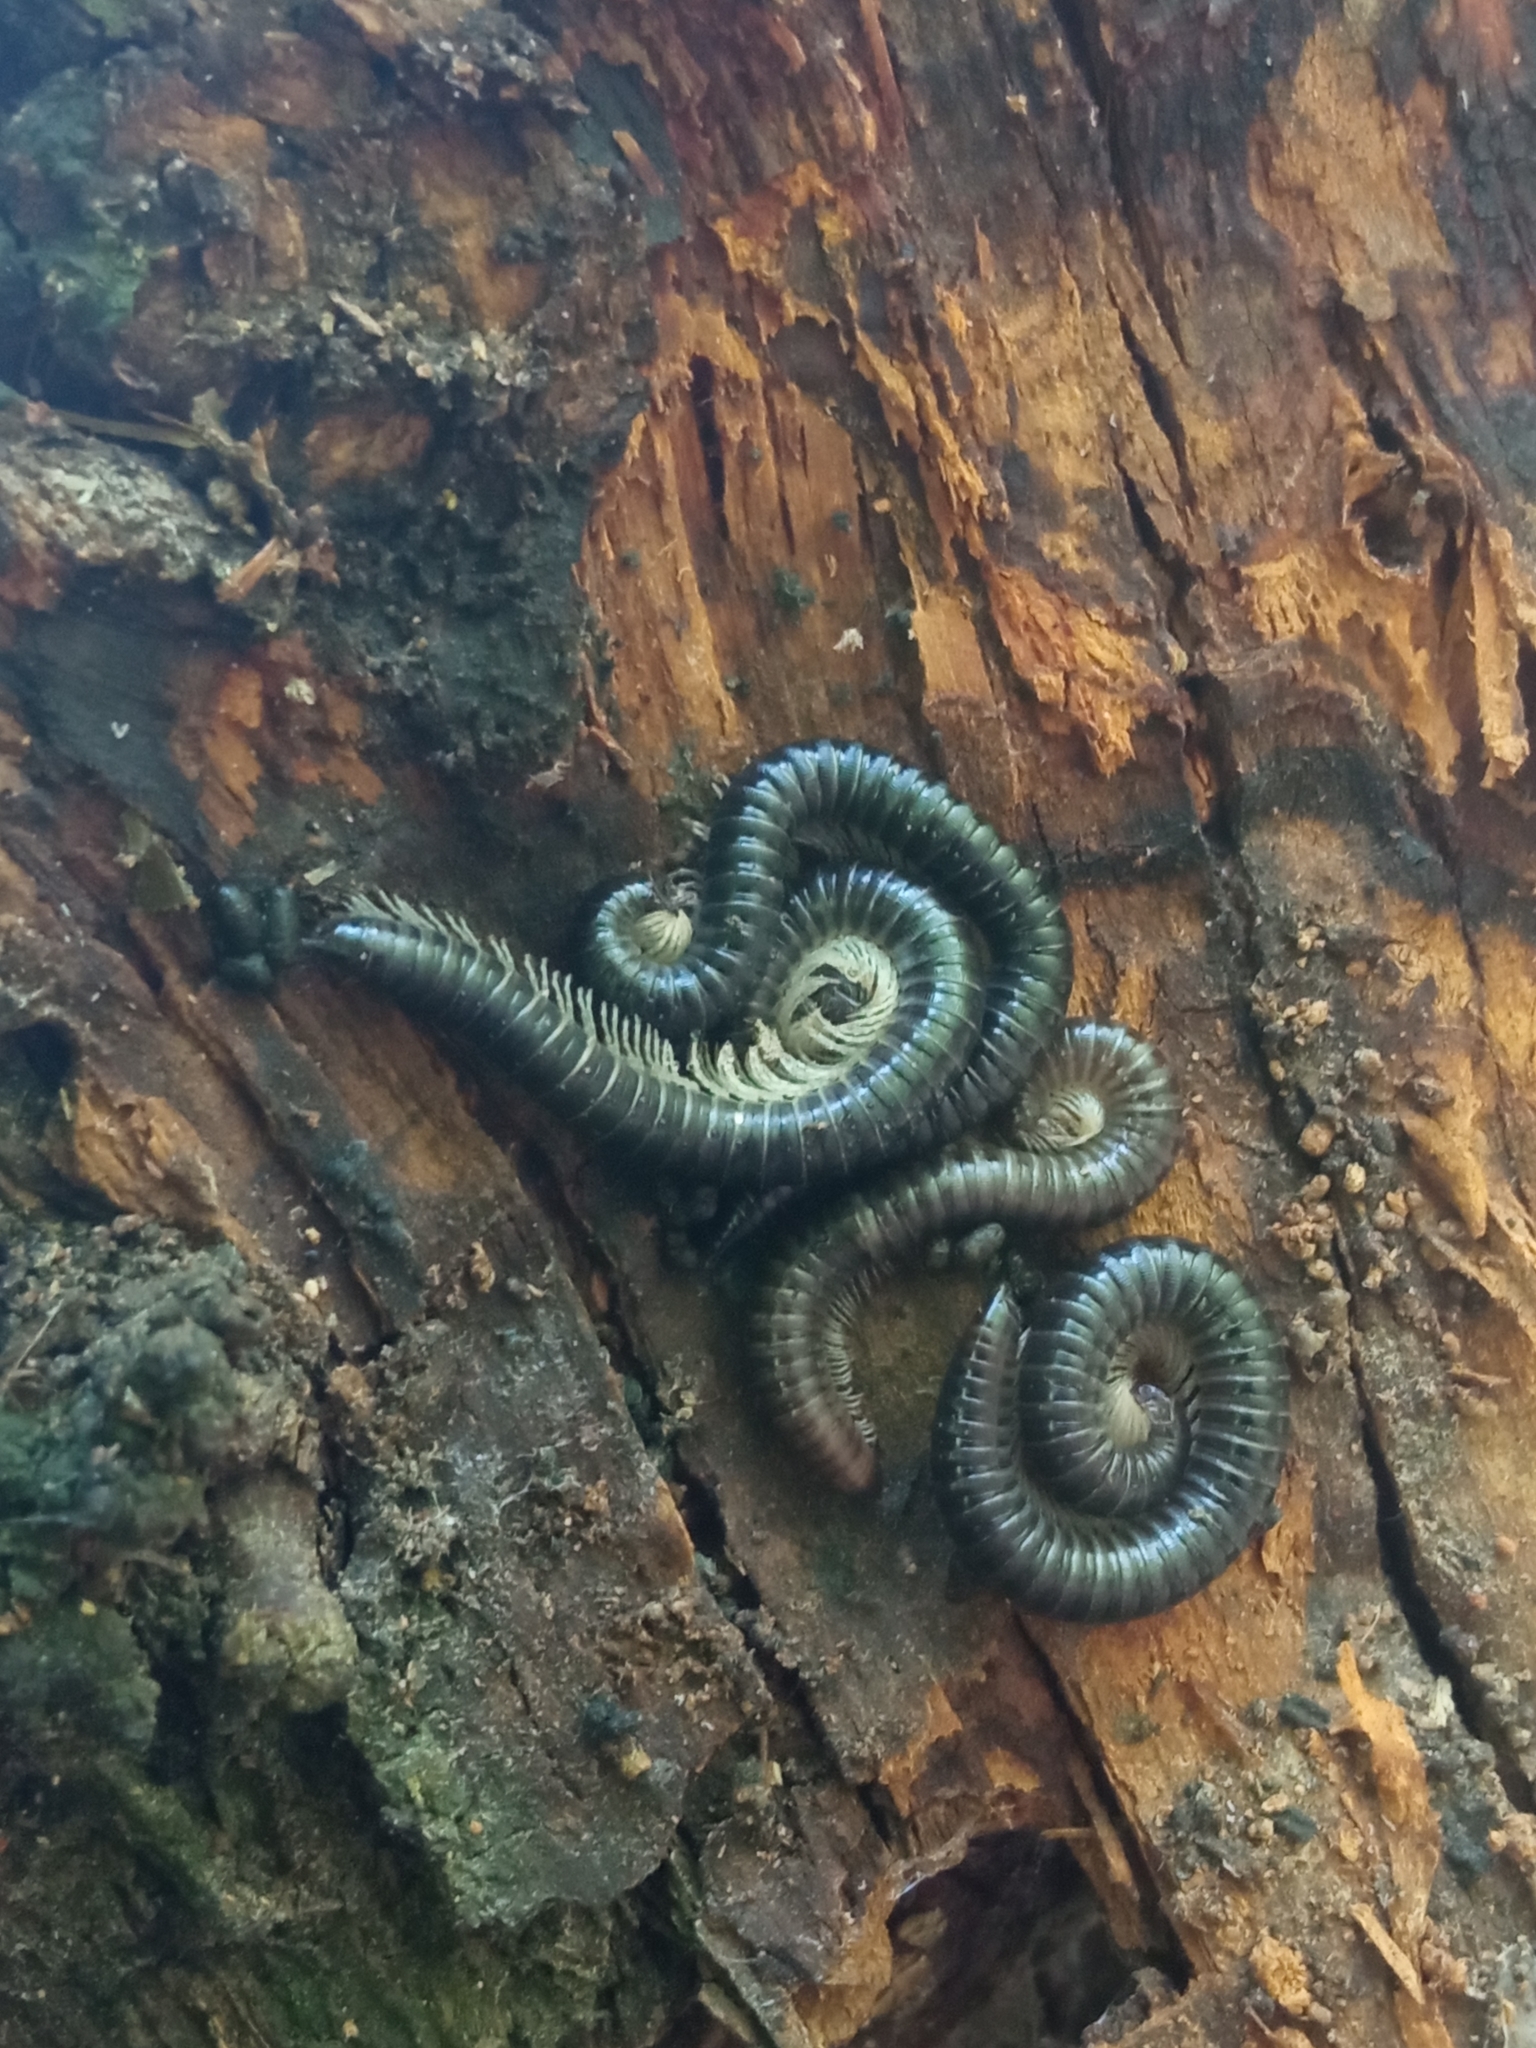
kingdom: Animalia
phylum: Arthropoda
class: Diplopoda
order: Julida
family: Julidae
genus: Tachypodoiulus
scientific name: Tachypodoiulus niger
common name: White-legged snake millipede
